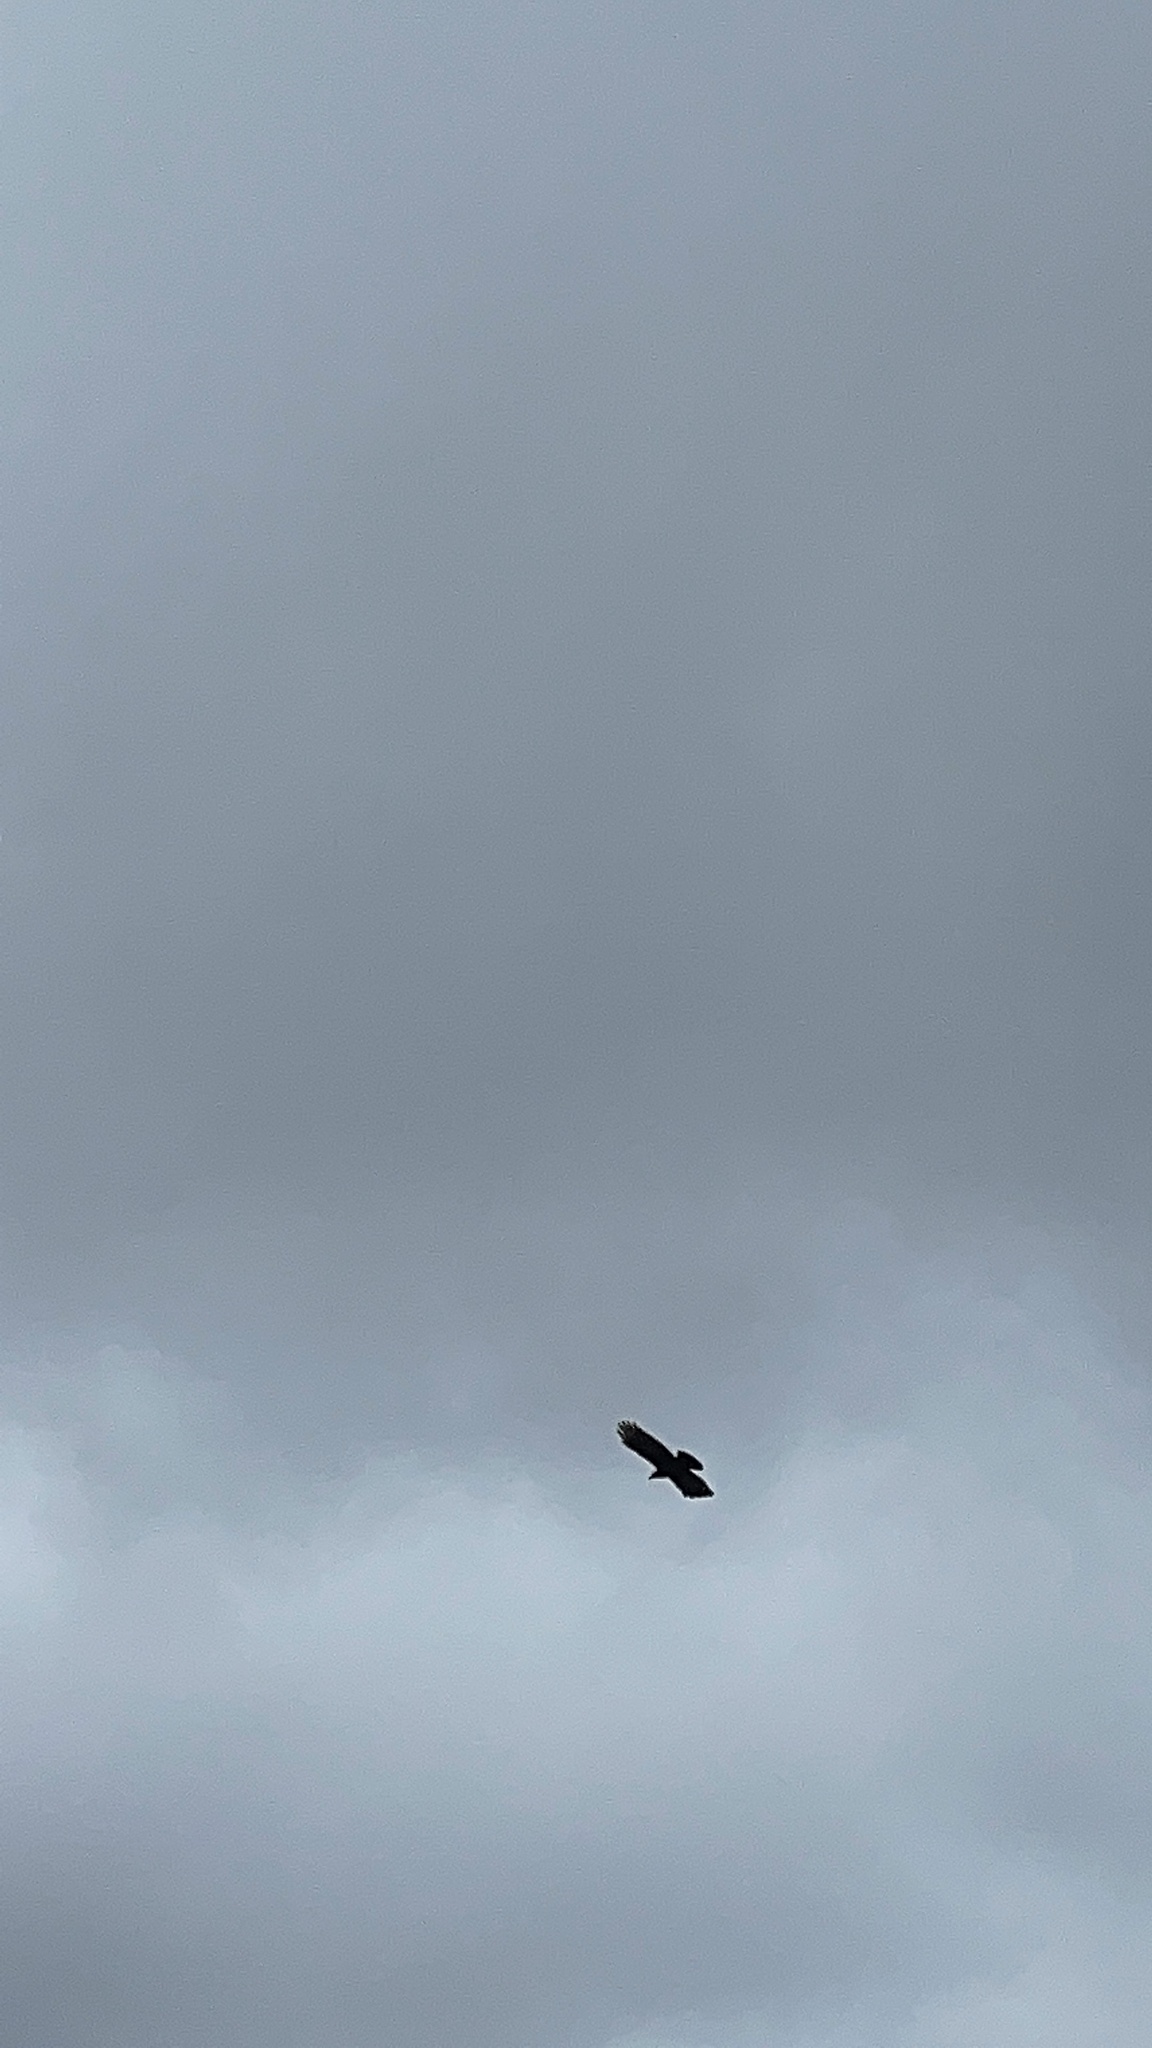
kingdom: Animalia
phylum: Chordata
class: Aves
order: Passeriformes
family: Corvidae
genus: Corvus
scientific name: Corvus brachyrhynchos
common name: American crow
